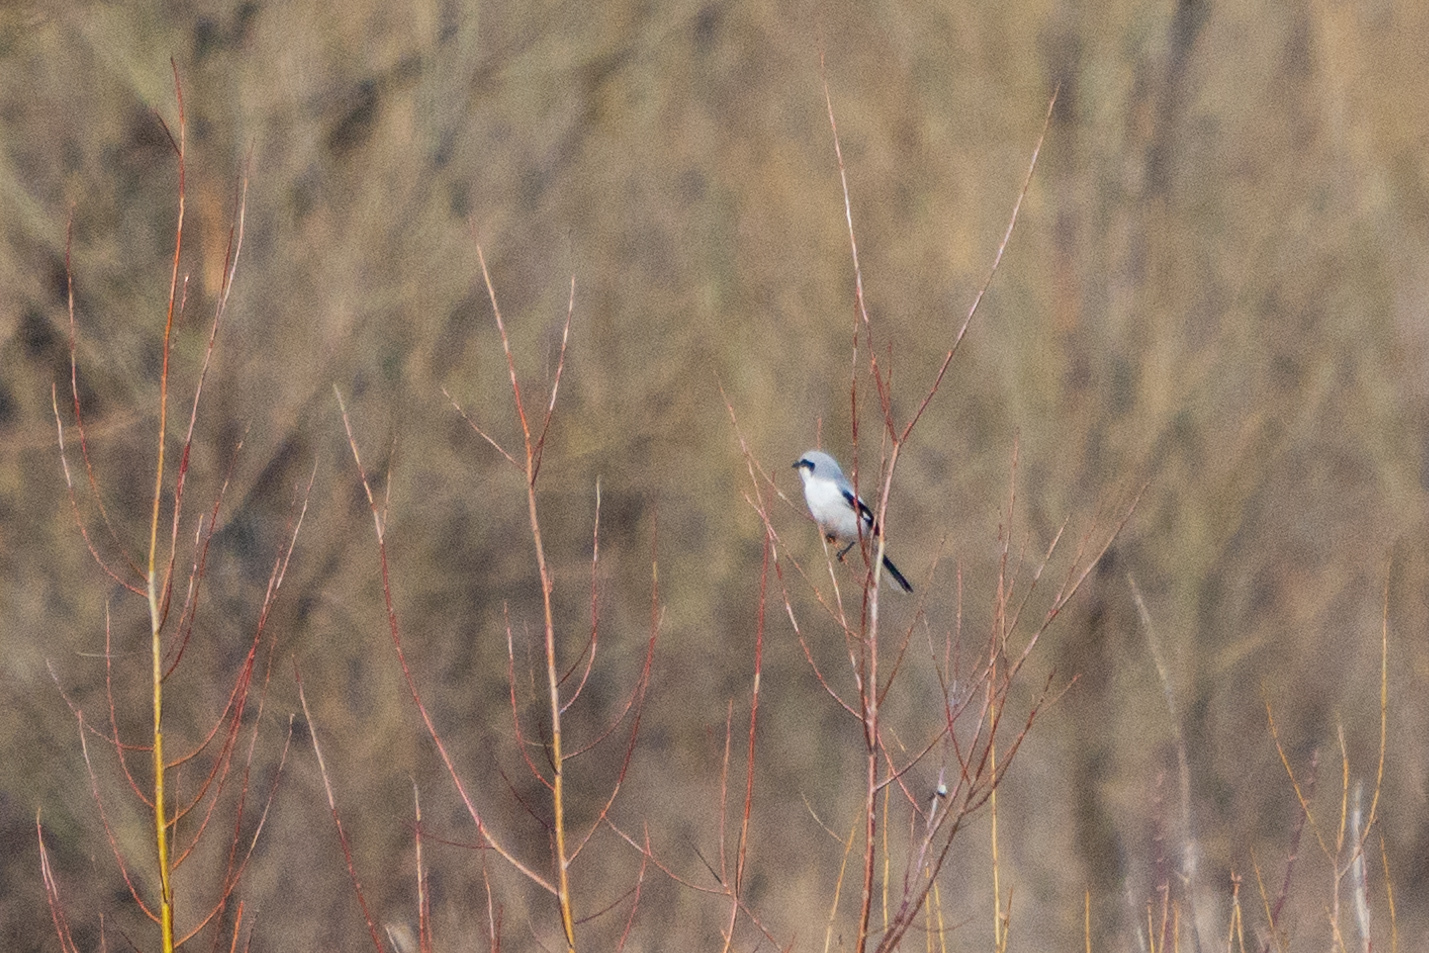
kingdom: Animalia
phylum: Chordata
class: Aves
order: Passeriformes
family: Laniidae
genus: Lanius
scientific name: Lanius excubitor
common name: Great grey shrike
